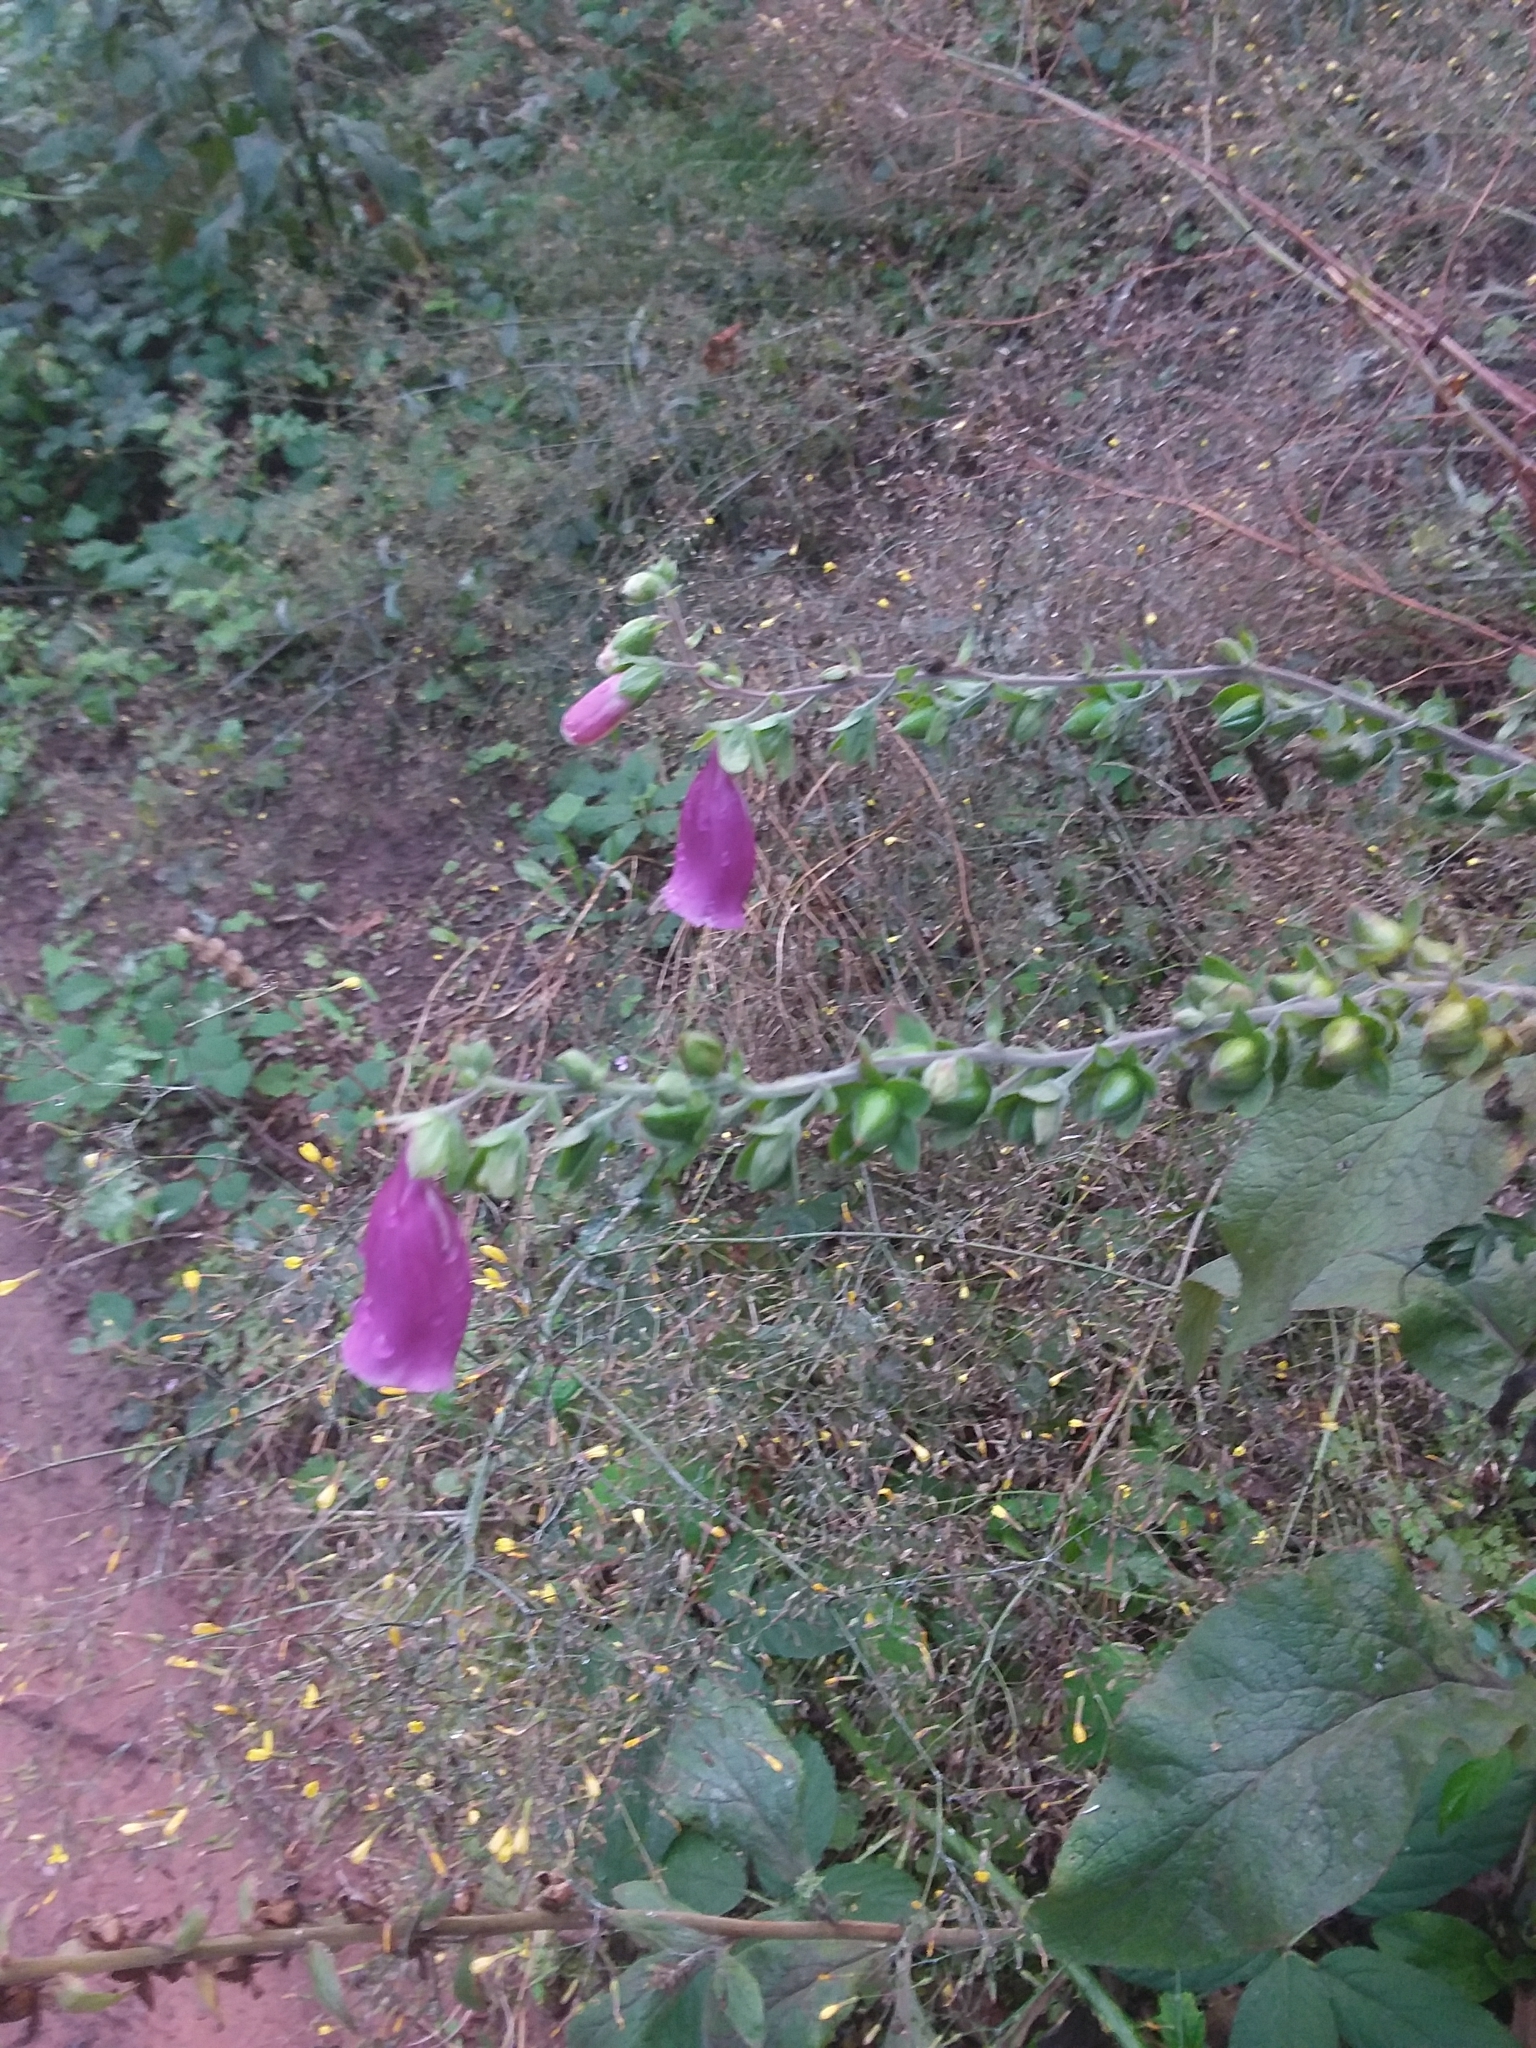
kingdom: Plantae
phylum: Tracheophyta
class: Magnoliopsida
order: Lamiales
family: Plantaginaceae
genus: Digitalis
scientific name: Digitalis purpurea
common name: Foxglove
